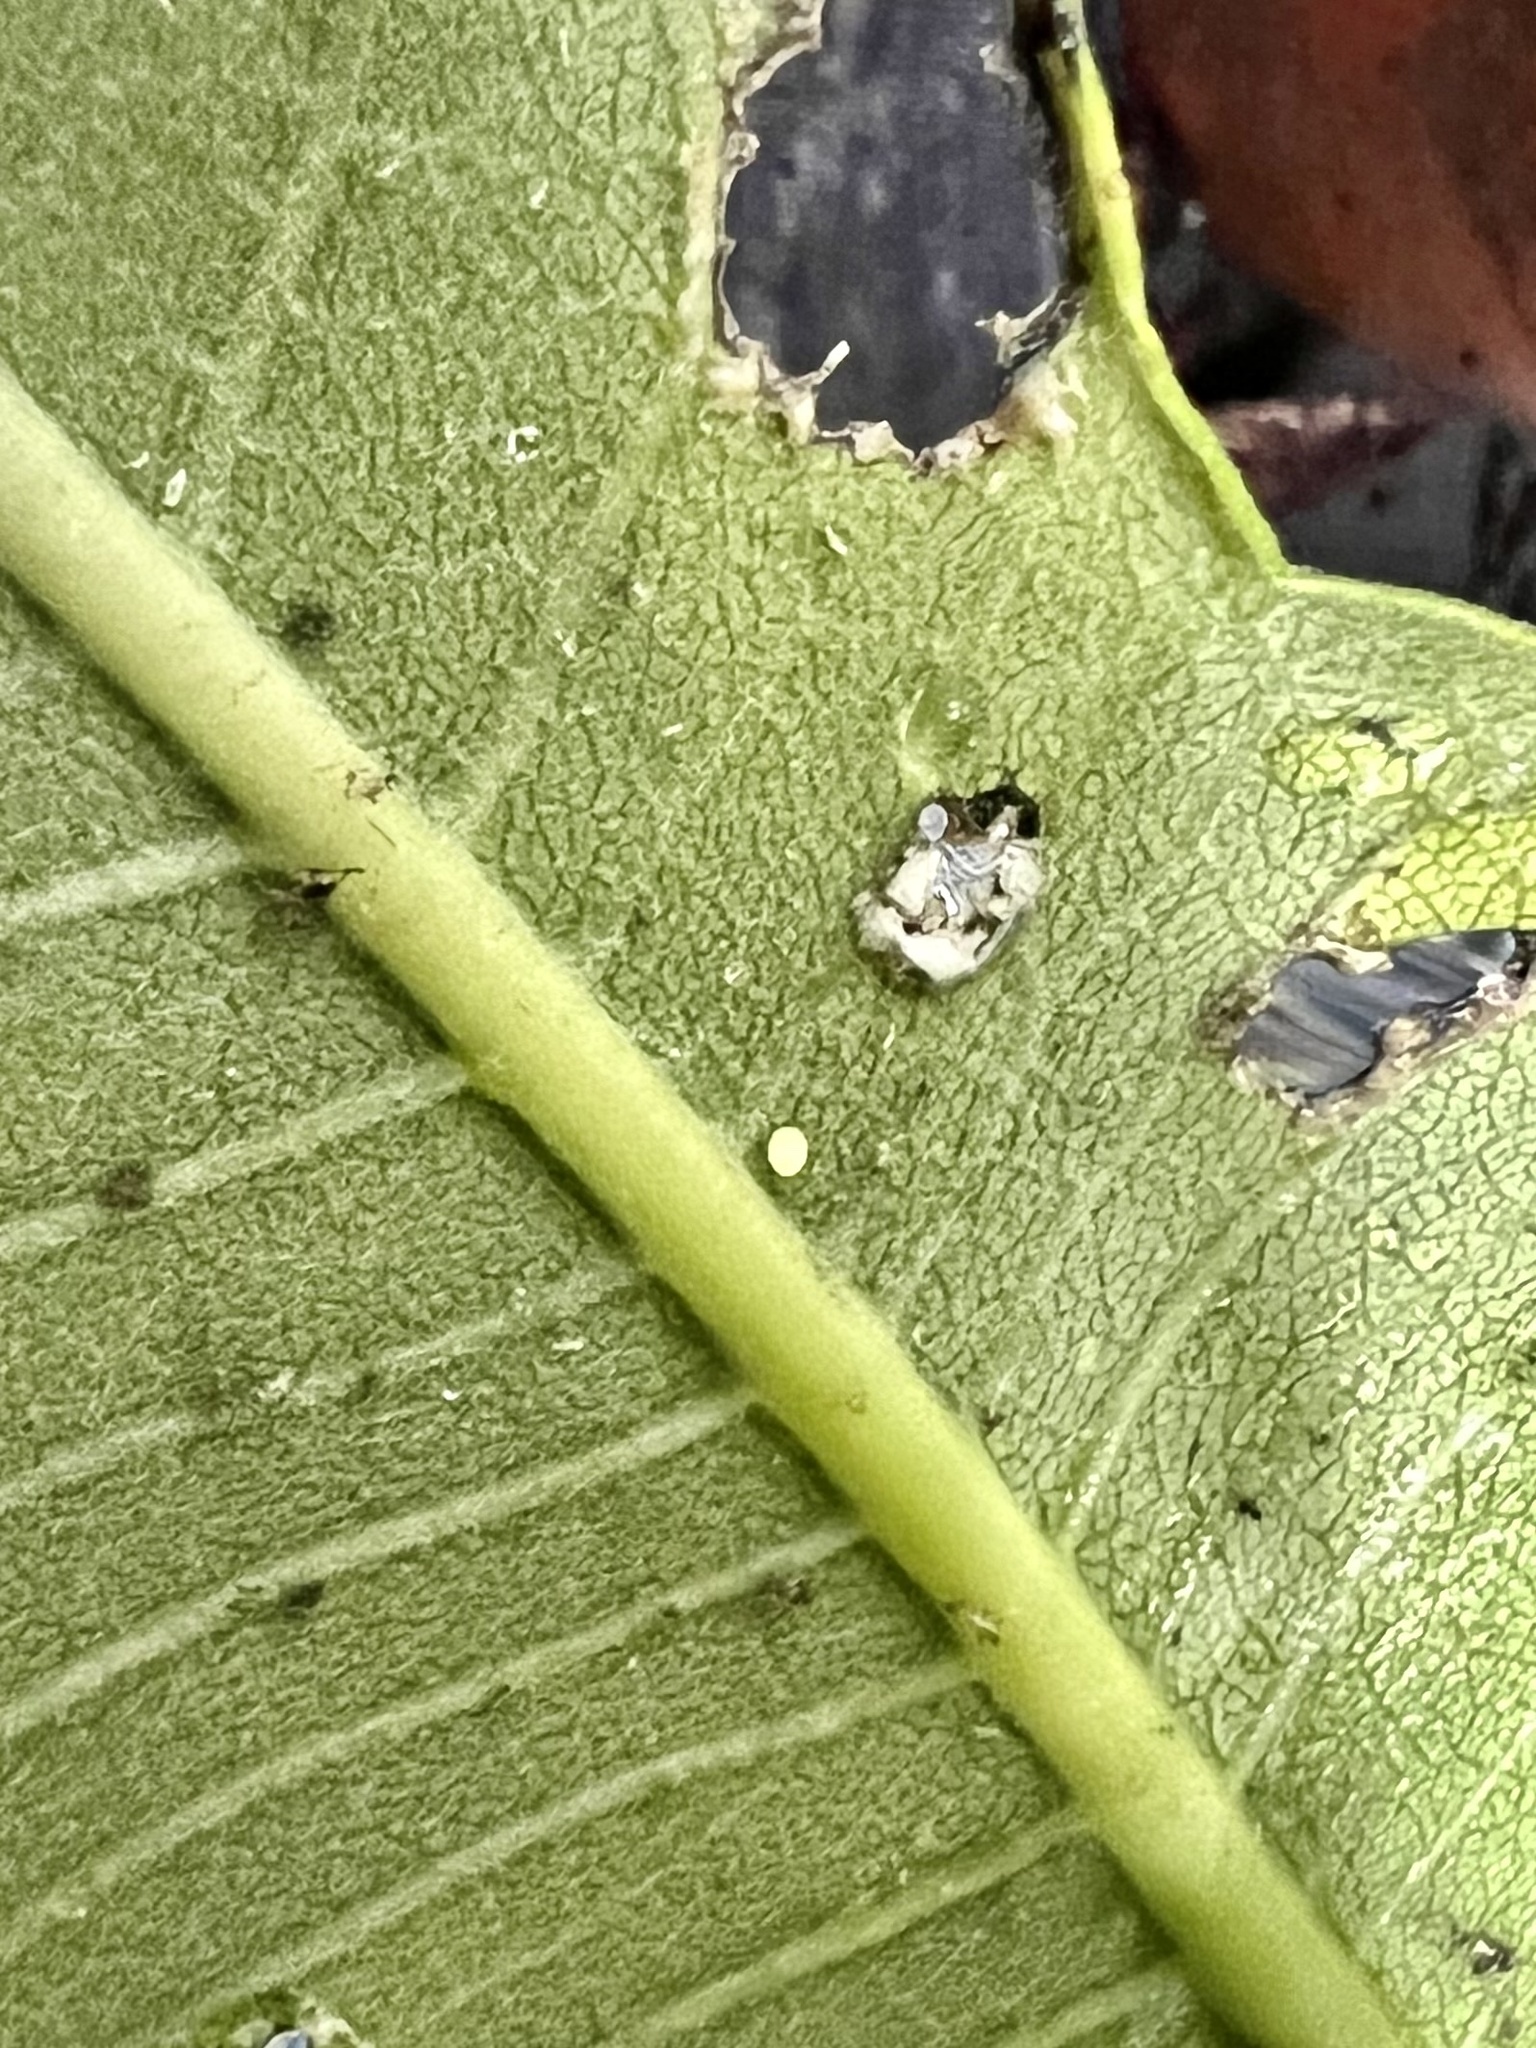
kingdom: Animalia
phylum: Arthropoda
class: Insecta
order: Lepidoptera
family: Nymphalidae
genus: Danaus
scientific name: Danaus plexippus
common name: Monarch
